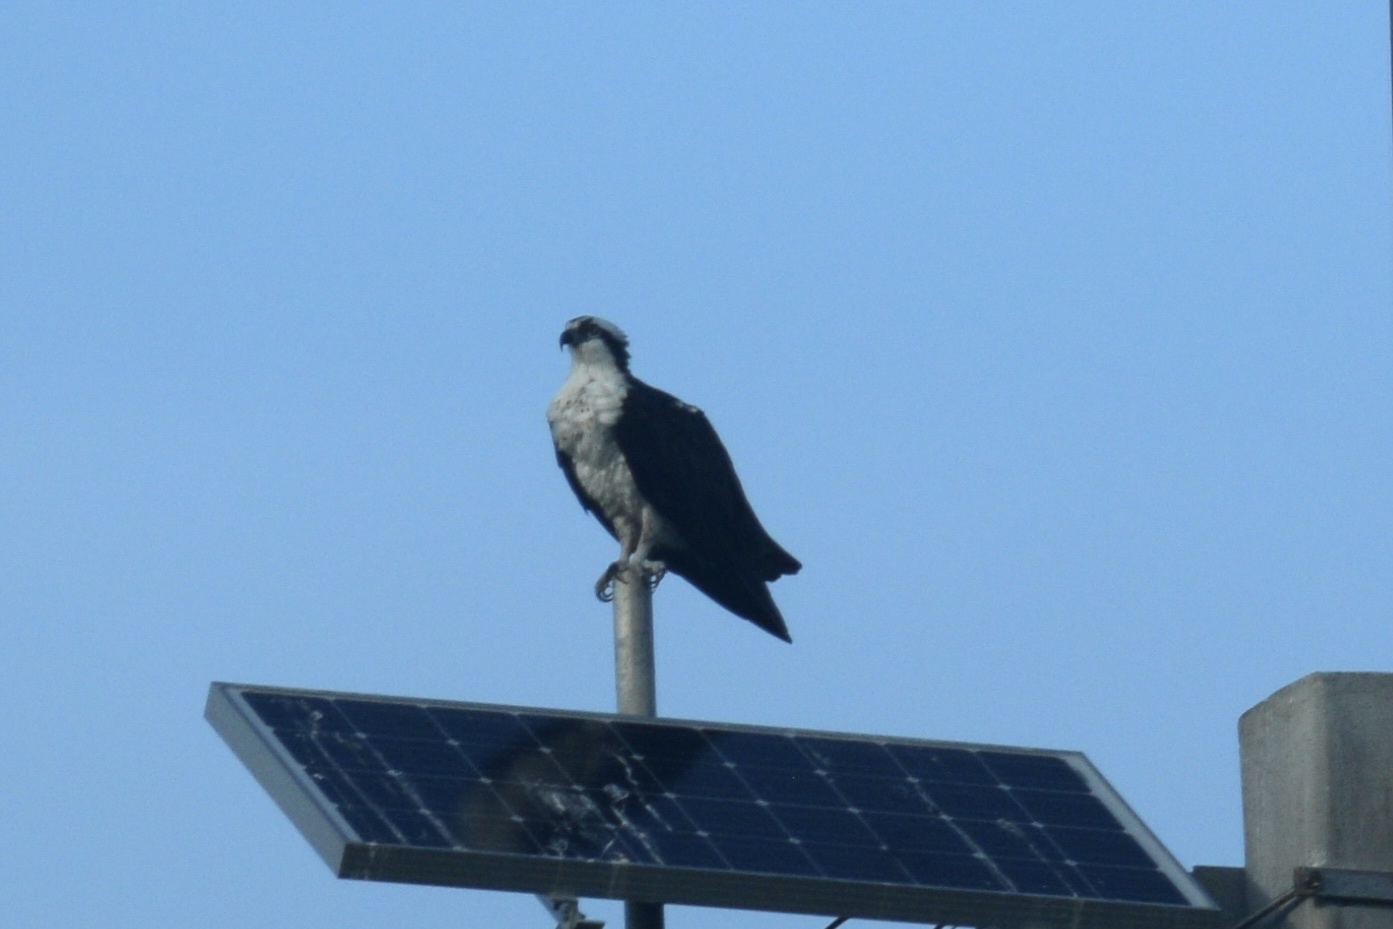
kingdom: Animalia
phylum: Chordata
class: Aves
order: Accipitriformes
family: Pandionidae
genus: Pandion
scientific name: Pandion haliaetus
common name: Osprey
